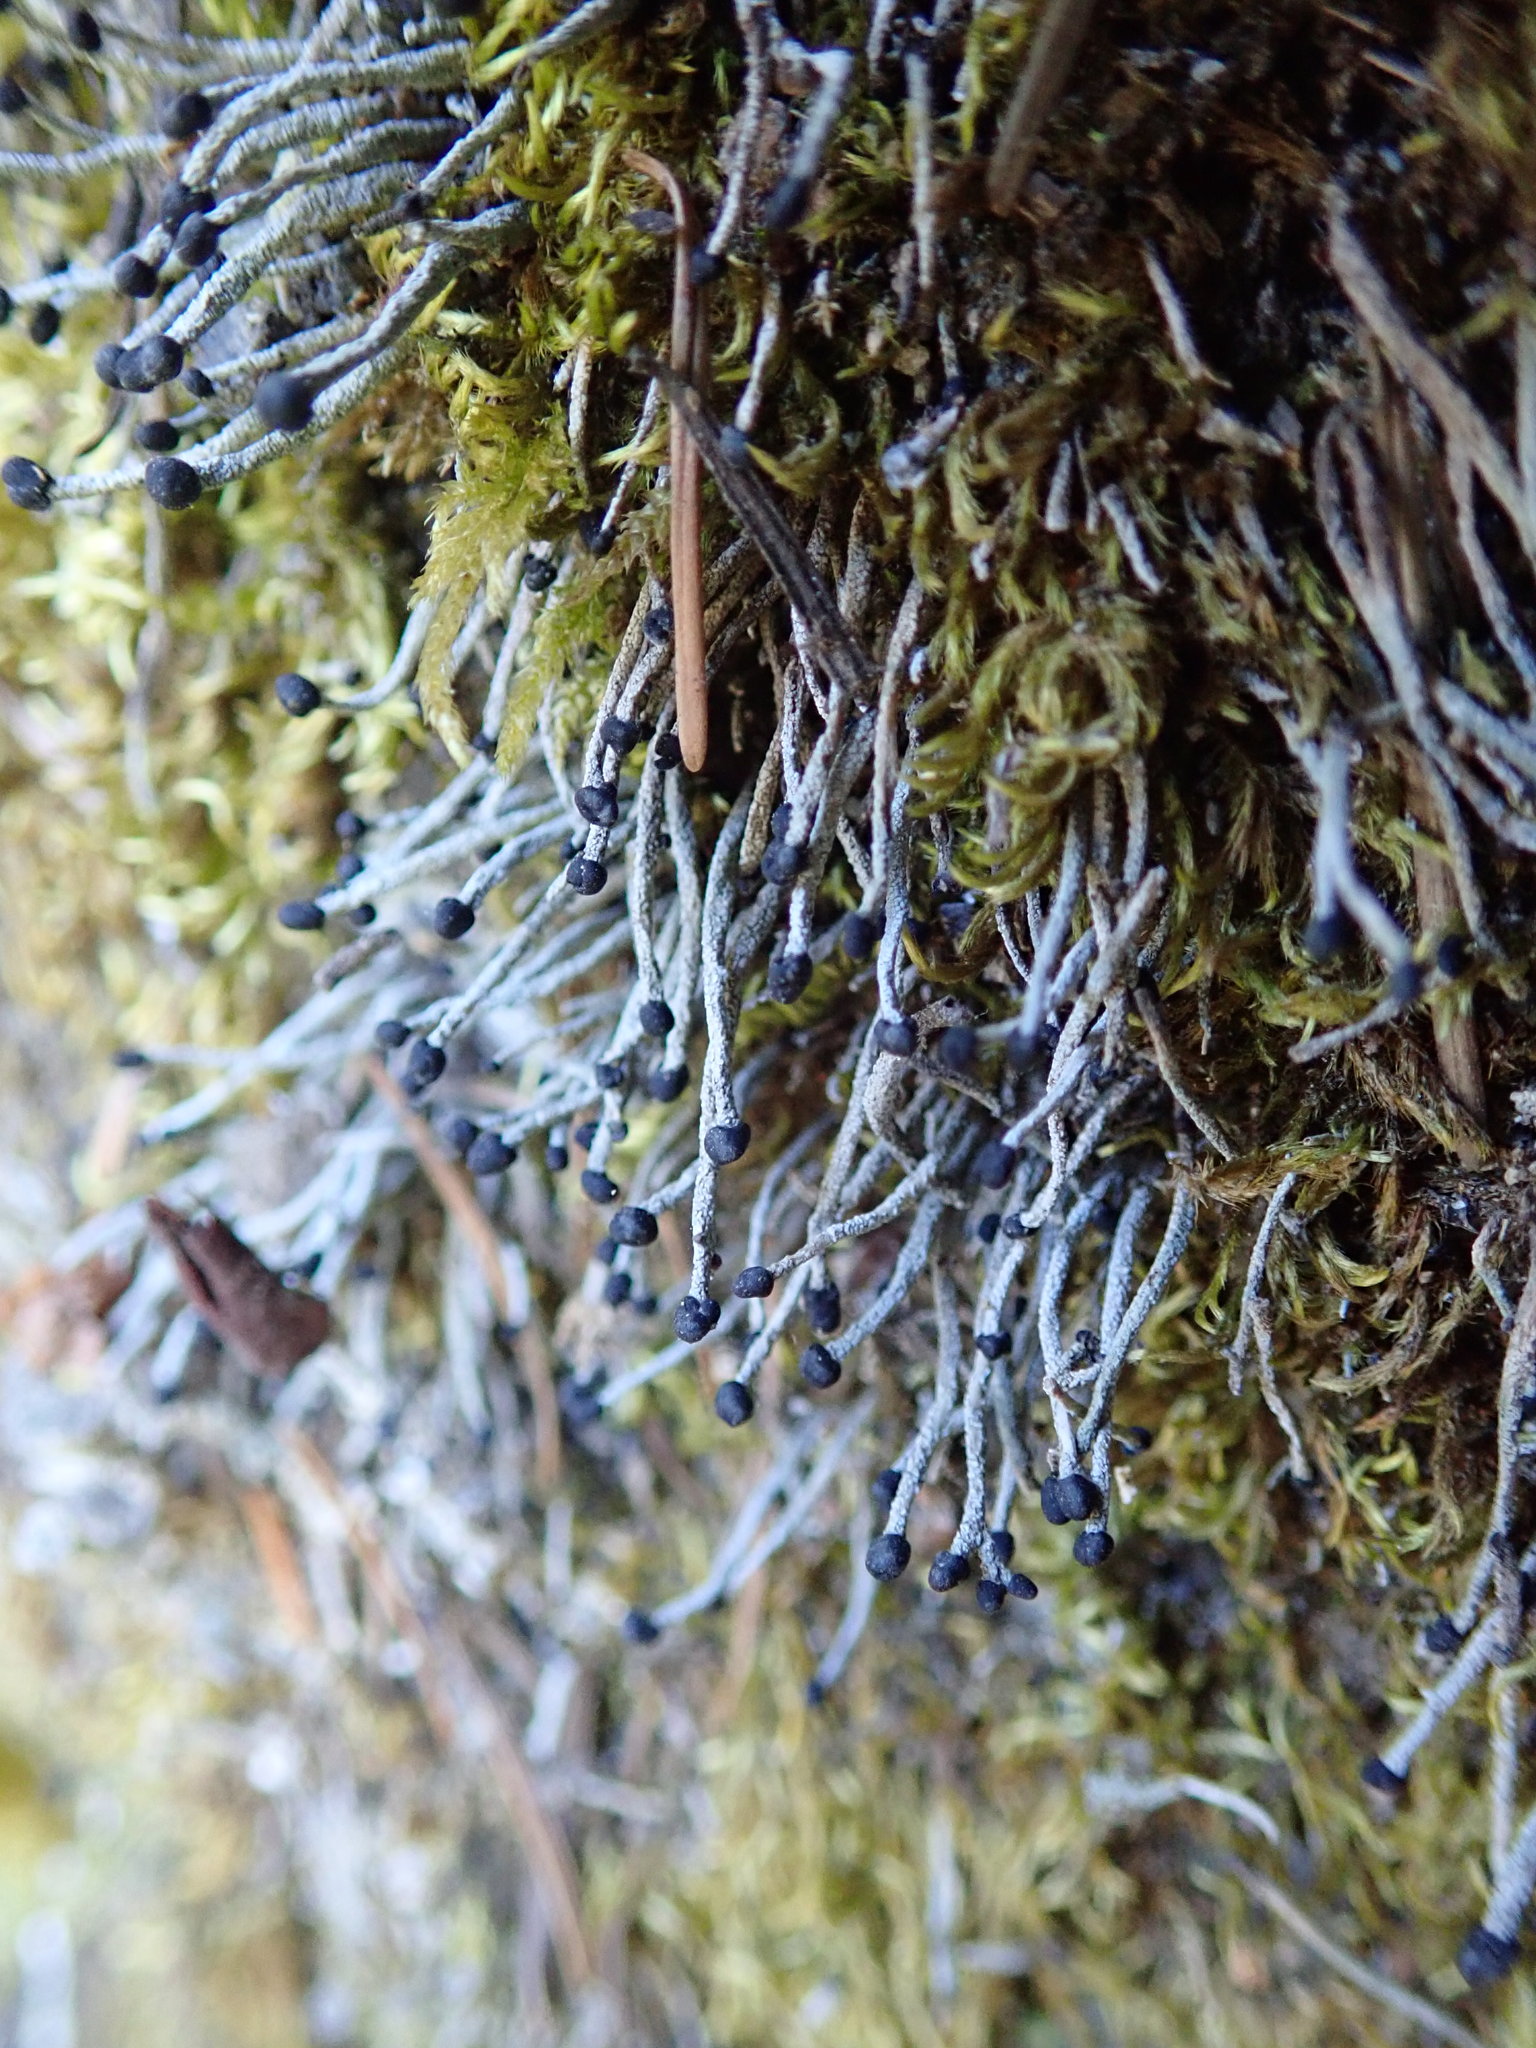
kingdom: Fungi
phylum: Ascomycota
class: Lecanoromycetes
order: Lecanorales
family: Cladoniaceae
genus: Pilophorus
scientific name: Pilophorus acicularis
